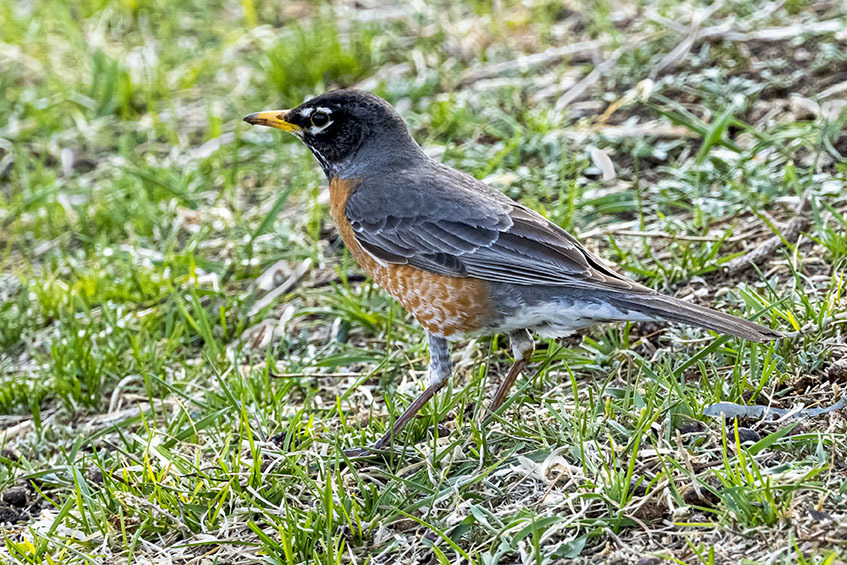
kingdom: Animalia
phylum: Chordata
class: Aves
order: Passeriformes
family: Turdidae
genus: Turdus
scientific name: Turdus migratorius
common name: American robin
